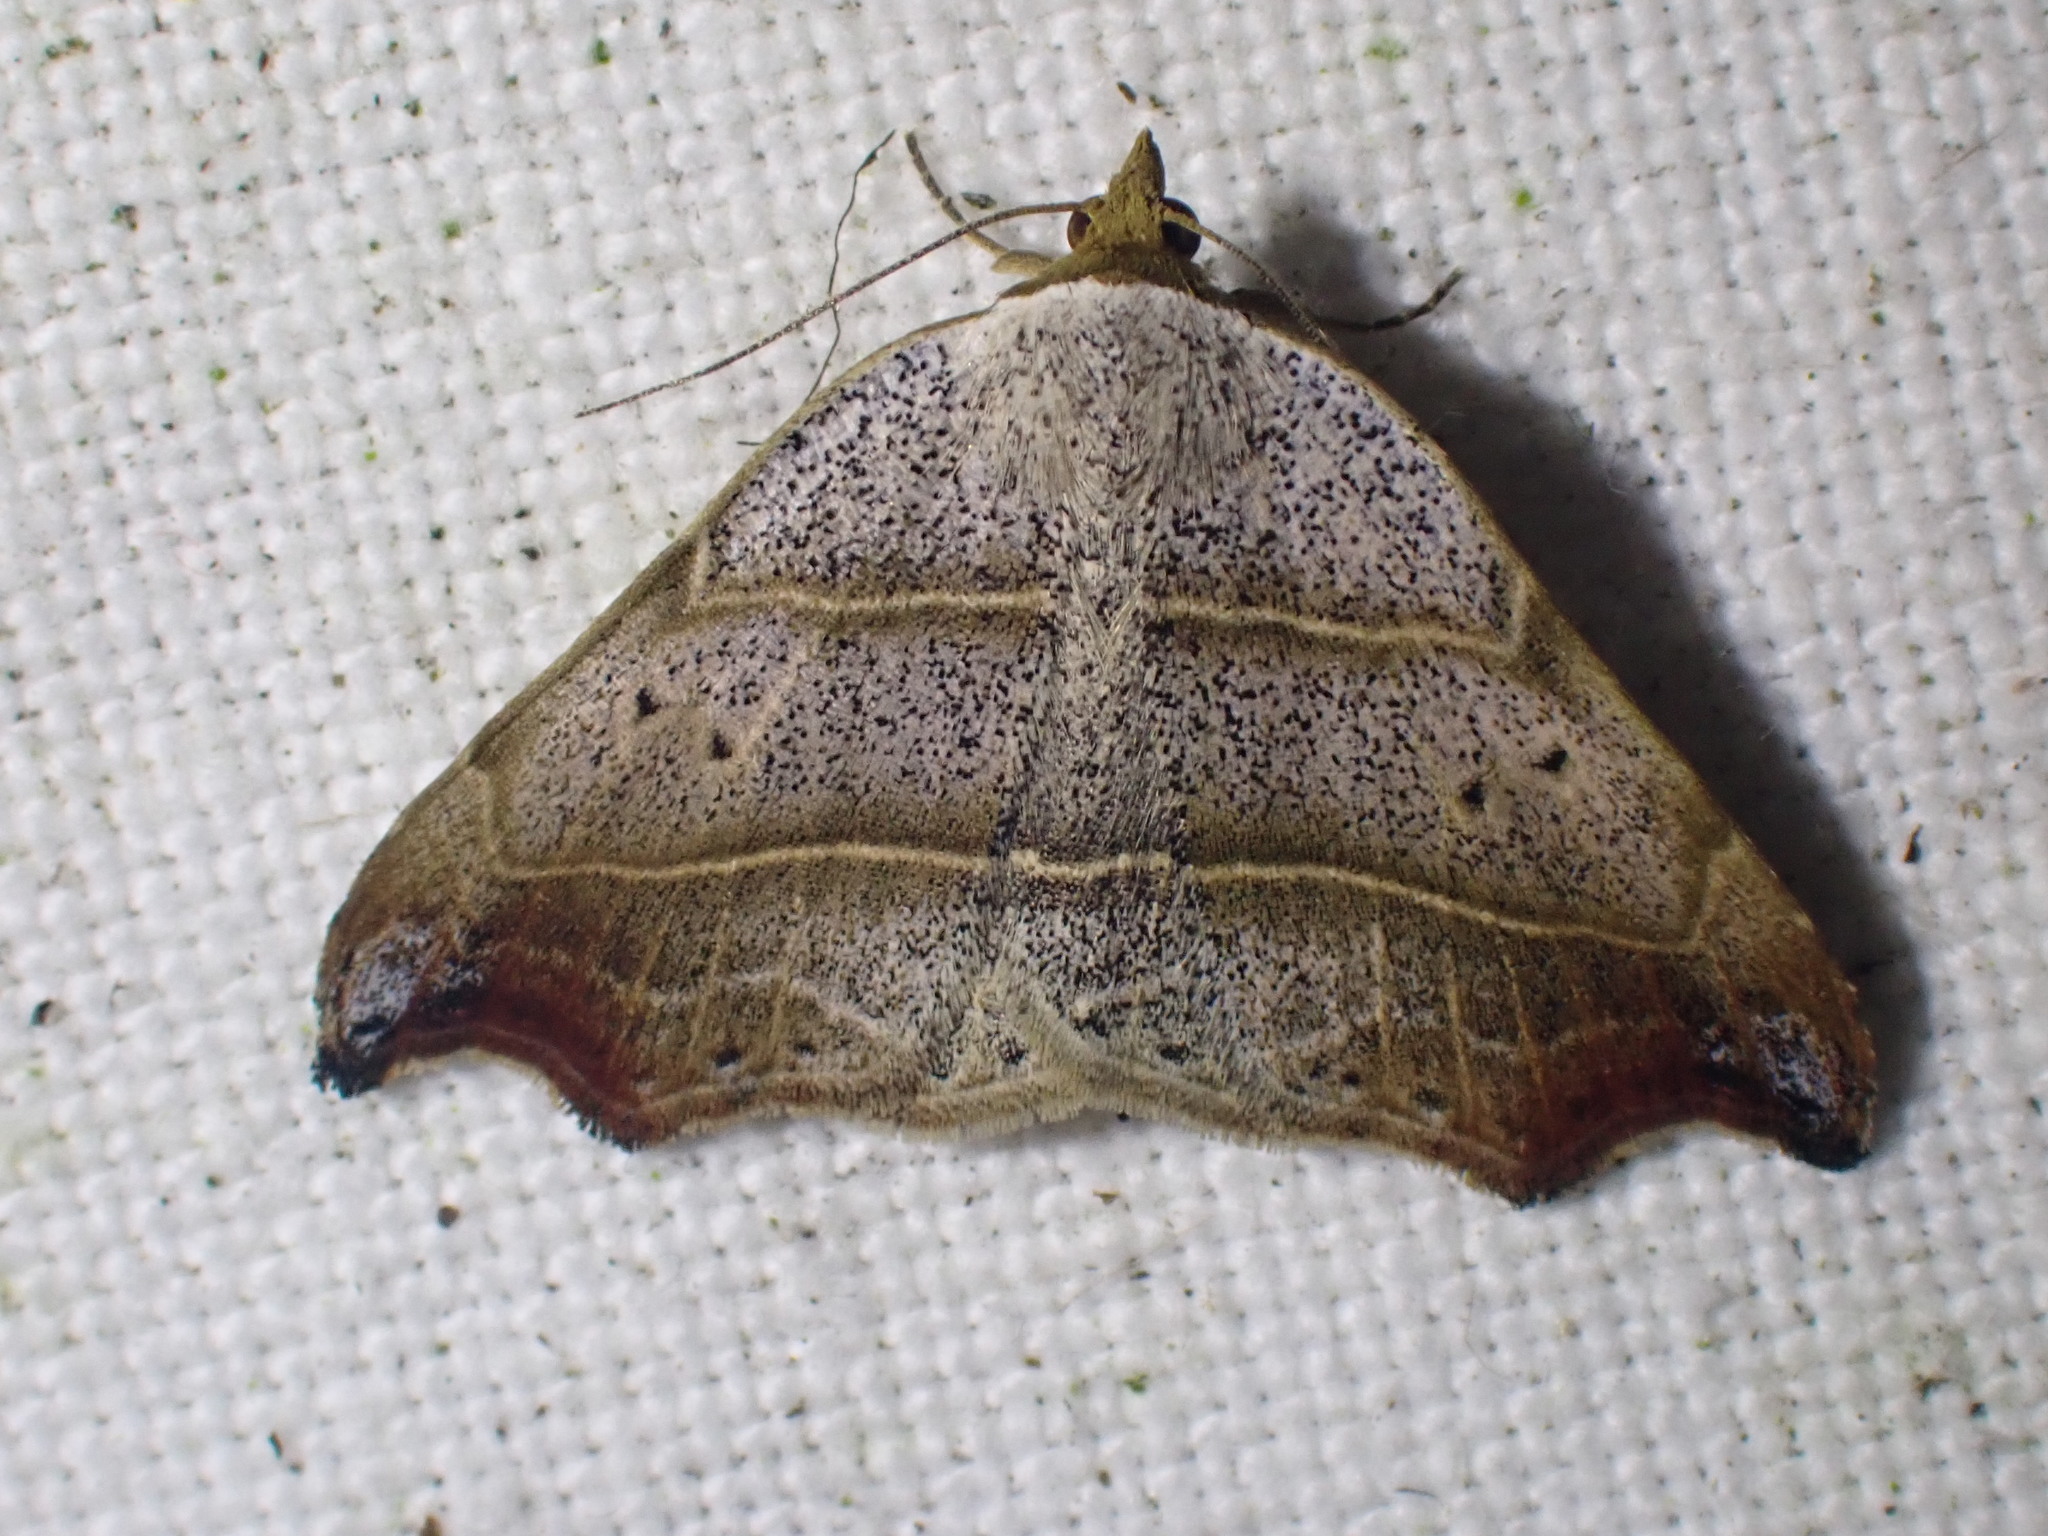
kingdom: Animalia
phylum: Arthropoda
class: Insecta
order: Lepidoptera
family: Erebidae
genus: Laspeyria
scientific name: Laspeyria flexula
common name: Beautiful hook-tip
